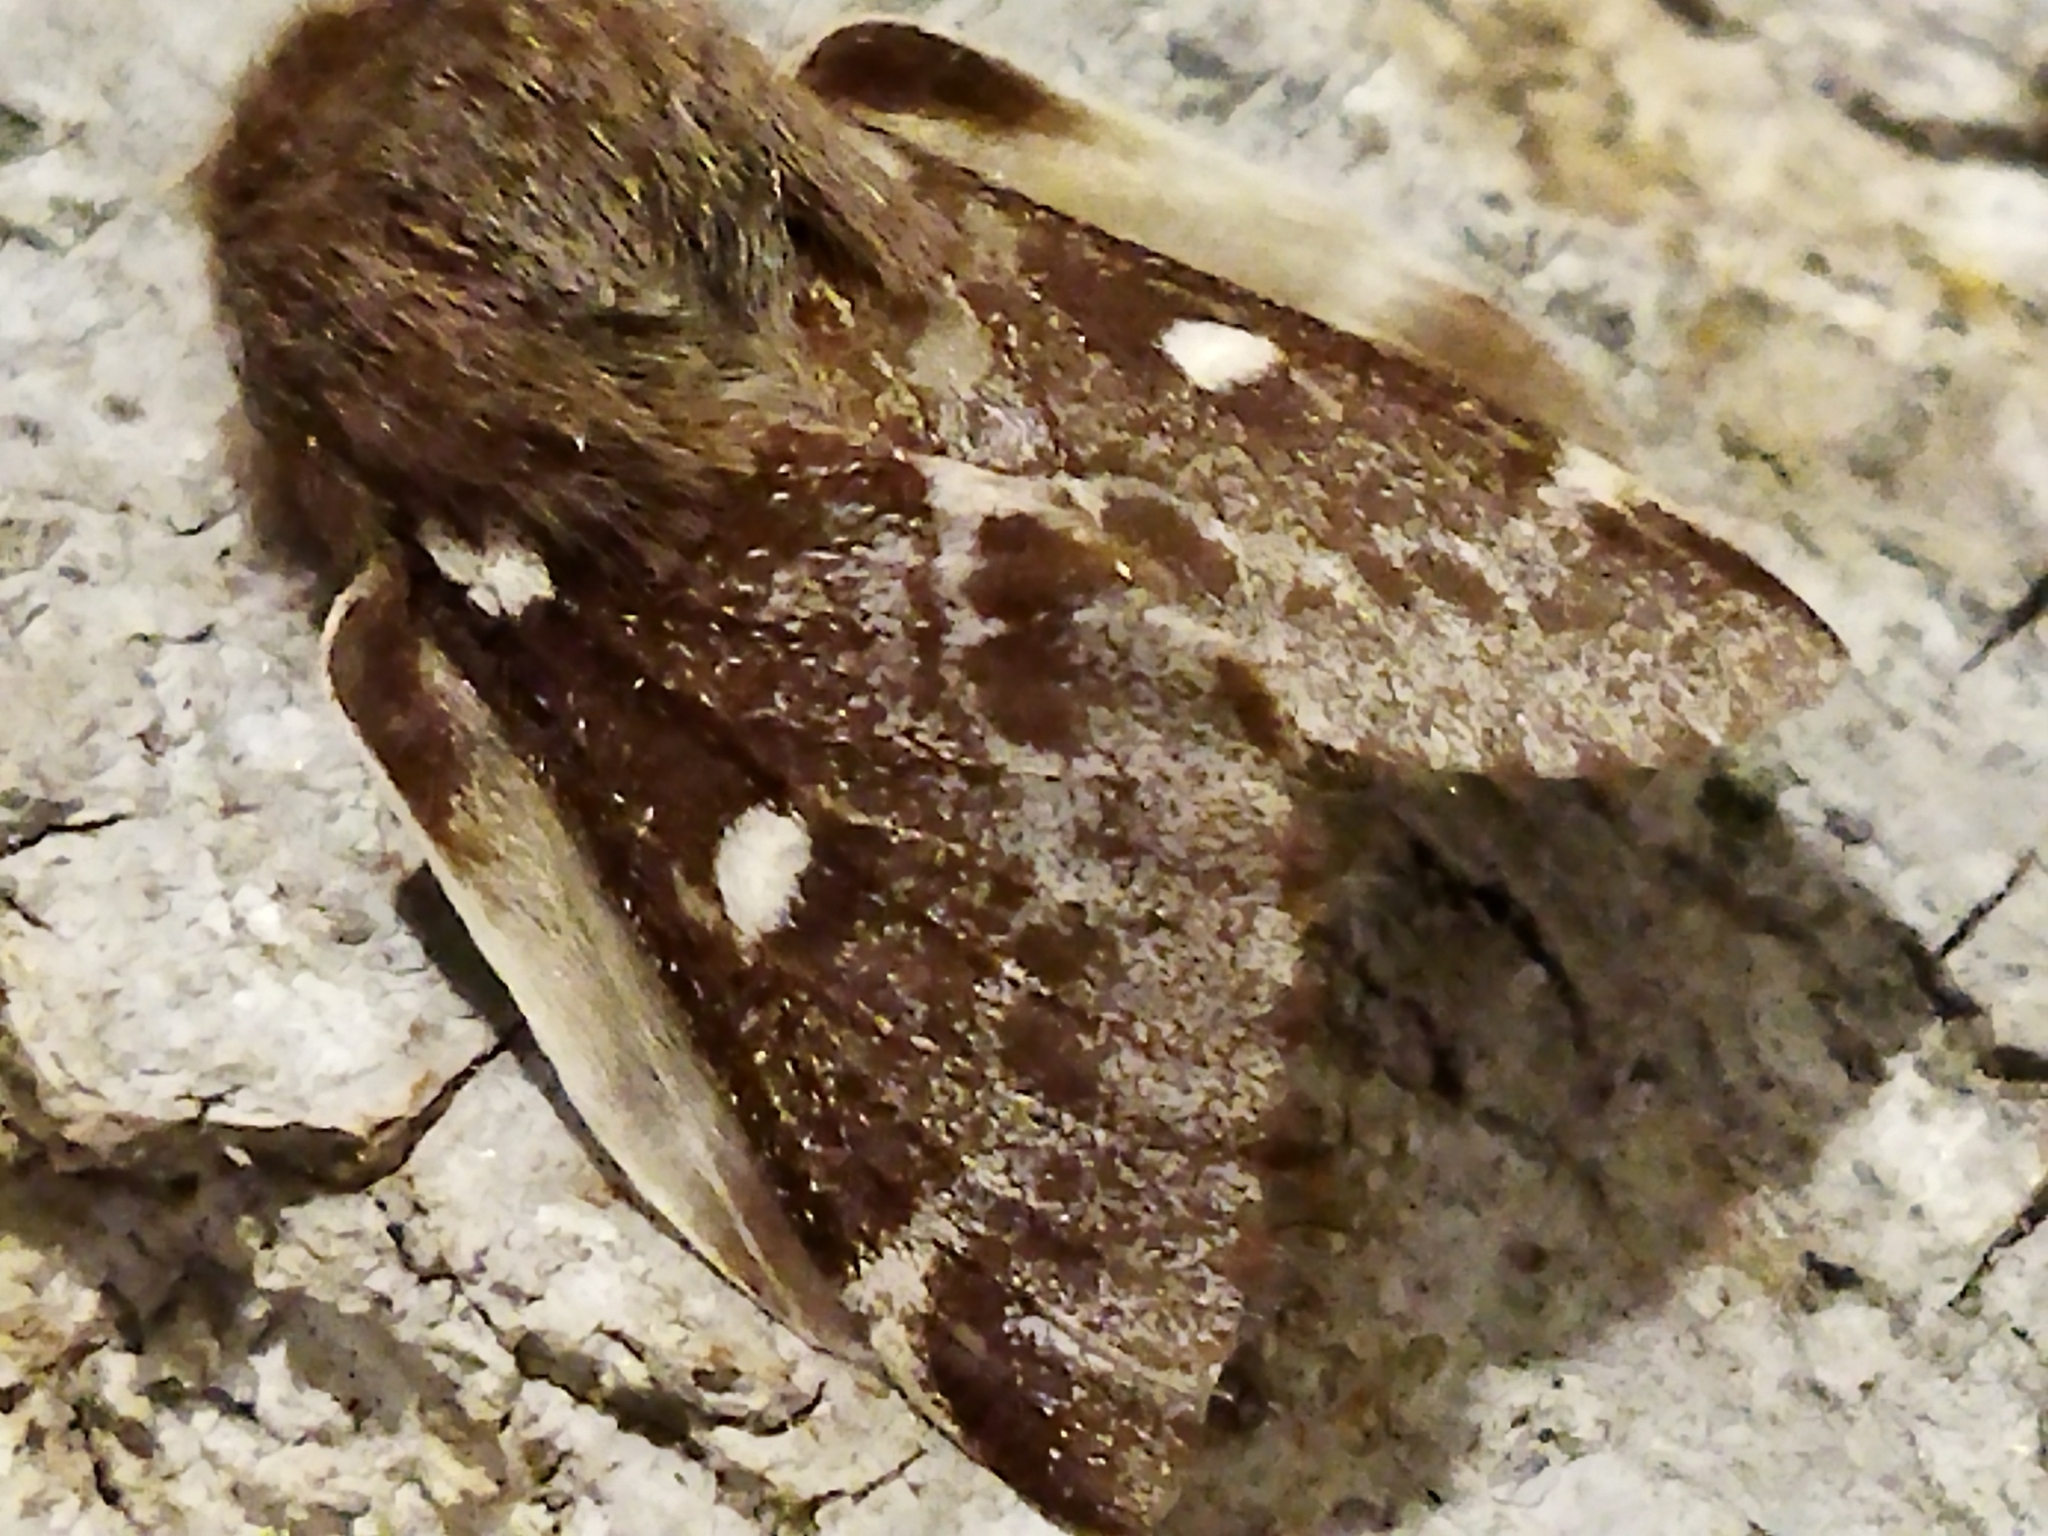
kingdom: Animalia
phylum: Arthropoda
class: Insecta
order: Lepidoptera
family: Lasiocampidae
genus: Eriogaster
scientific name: Eriogaster lanestris
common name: Small eggar
